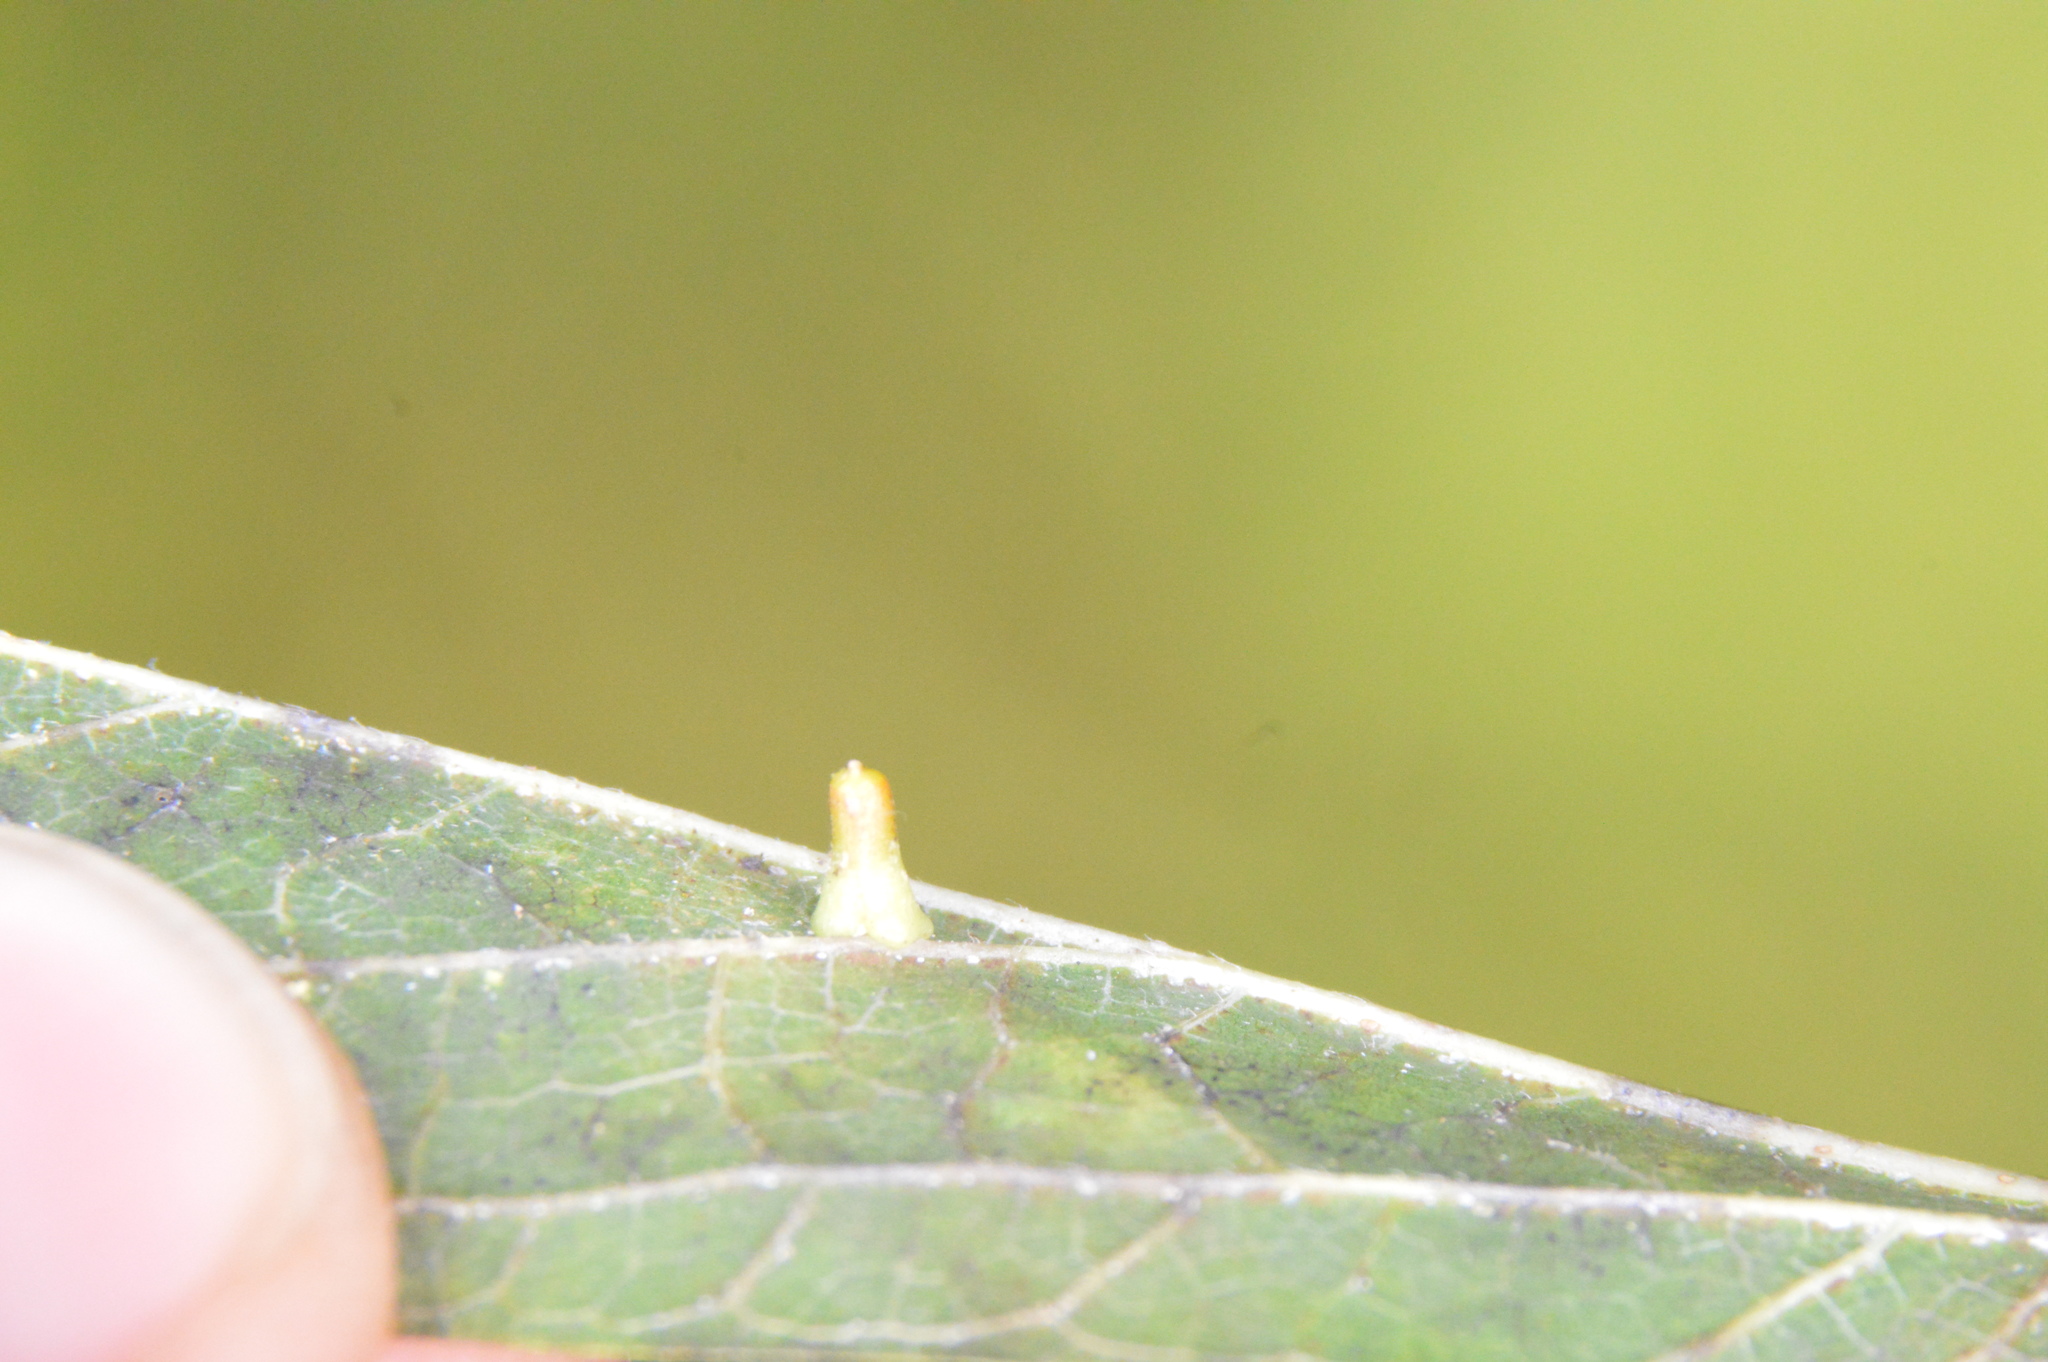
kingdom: Animalia
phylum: Arthropoda
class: Insecta
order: Diptera
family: Cecidomyiidae
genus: Celticecis
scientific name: Celticecis aciculata
